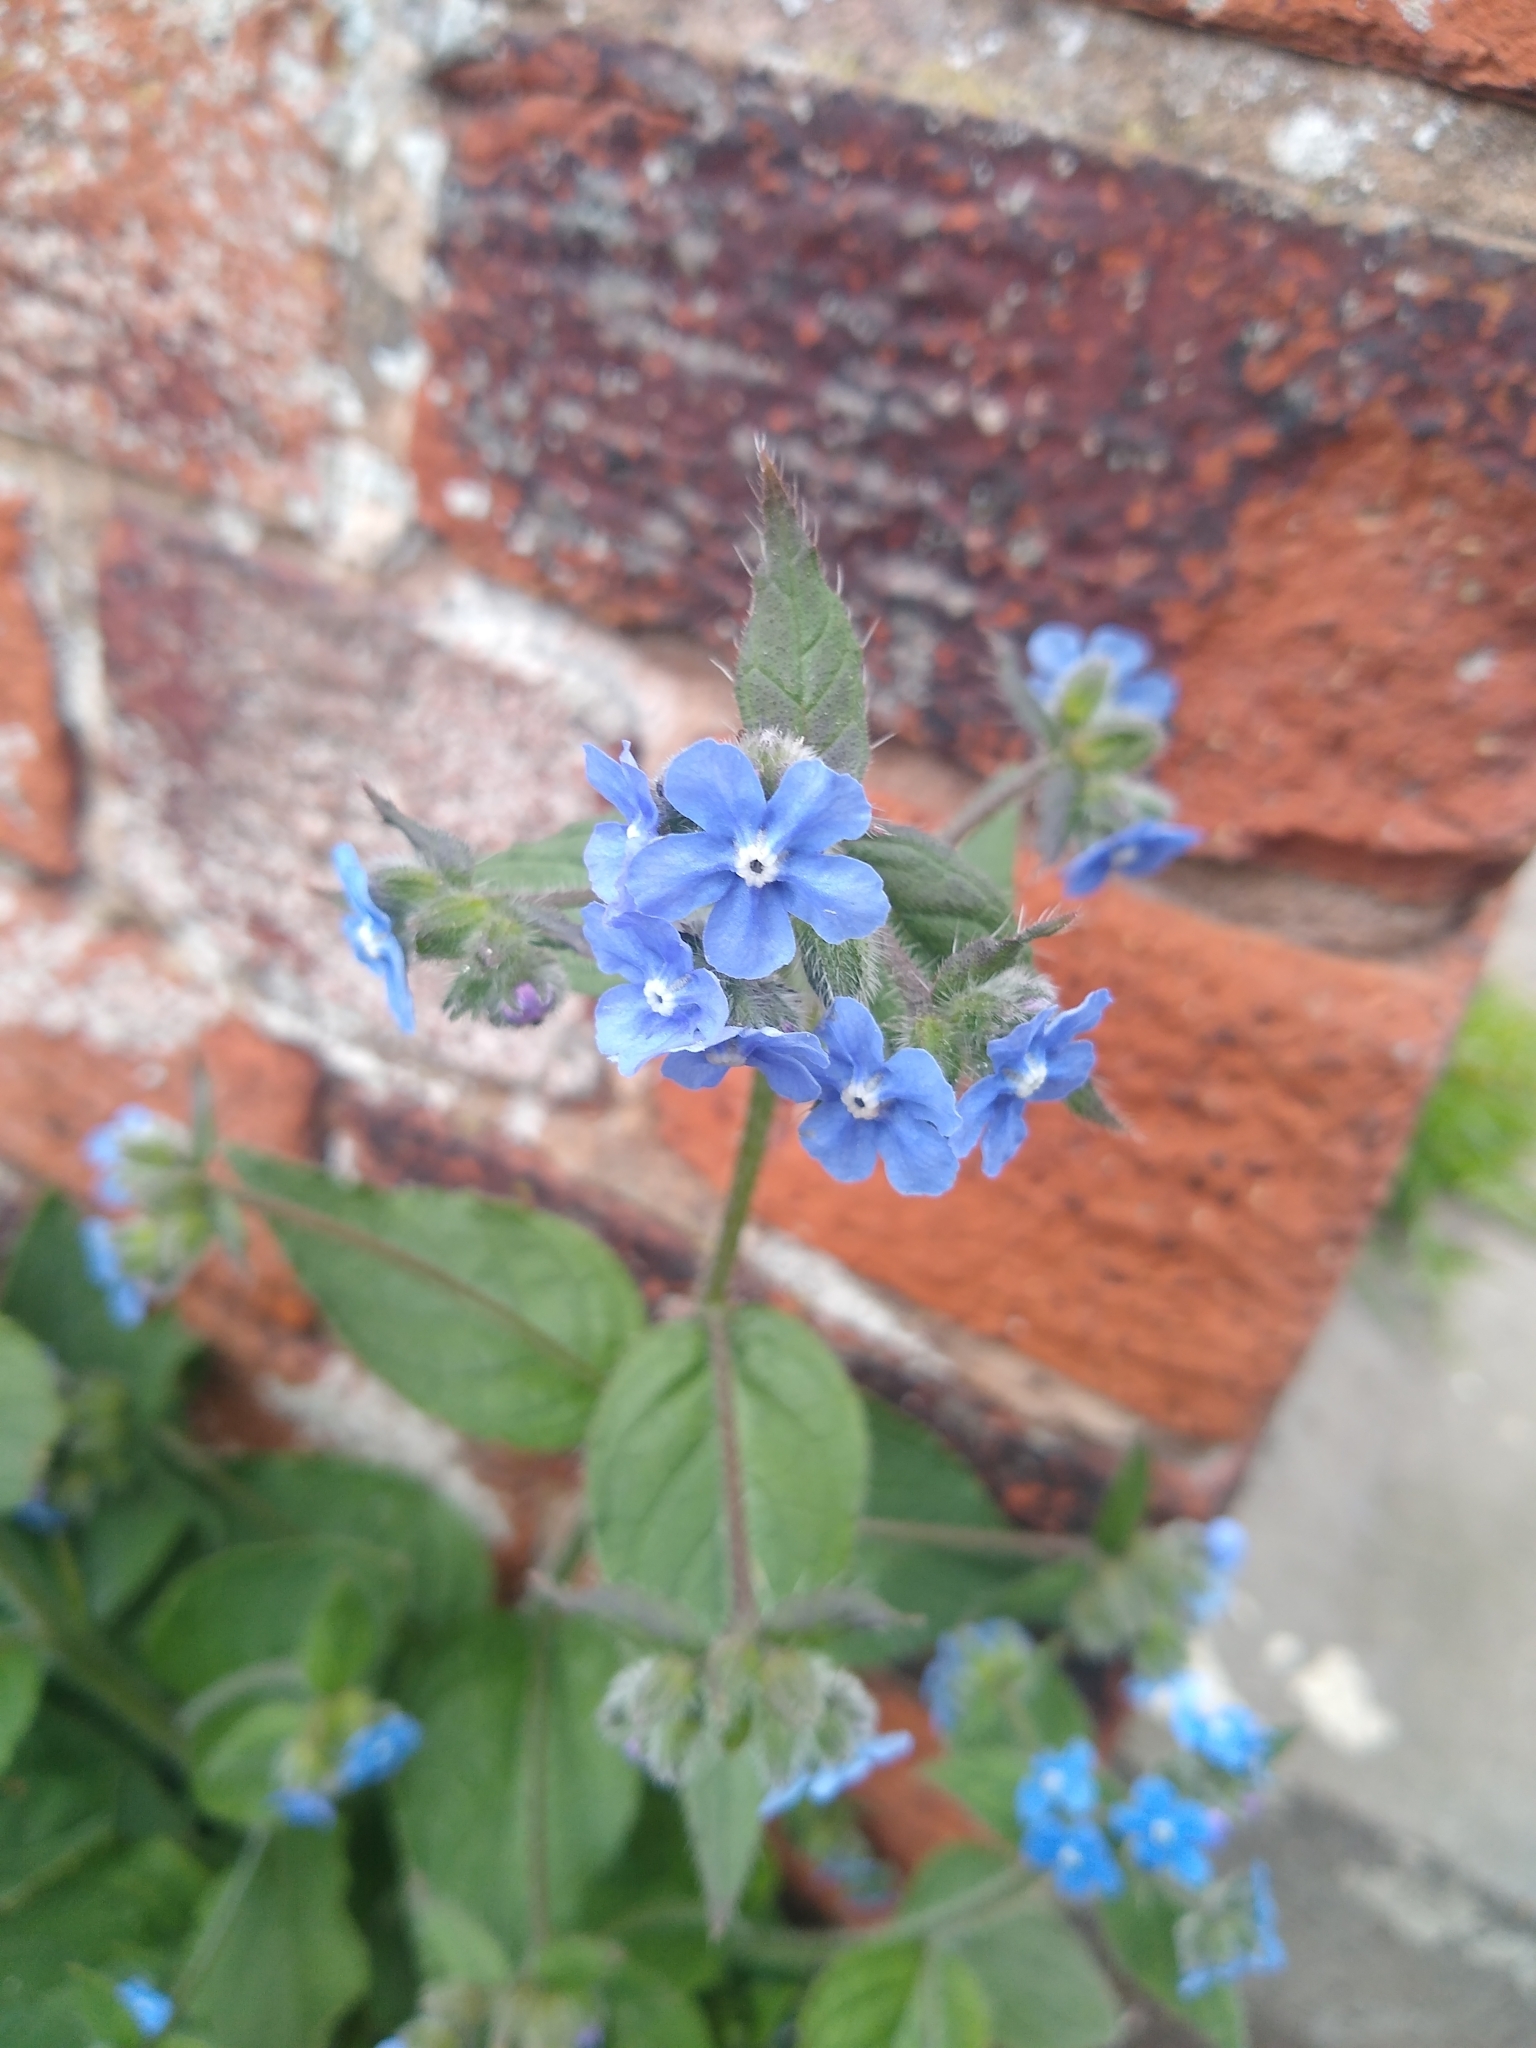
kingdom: Plantae
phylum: Tracheophyta
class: Magnoliopsida
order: Boraginales
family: Boraginaceae
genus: Pentaglottis
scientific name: Pentaglottis sempervirens
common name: Green alkanet
